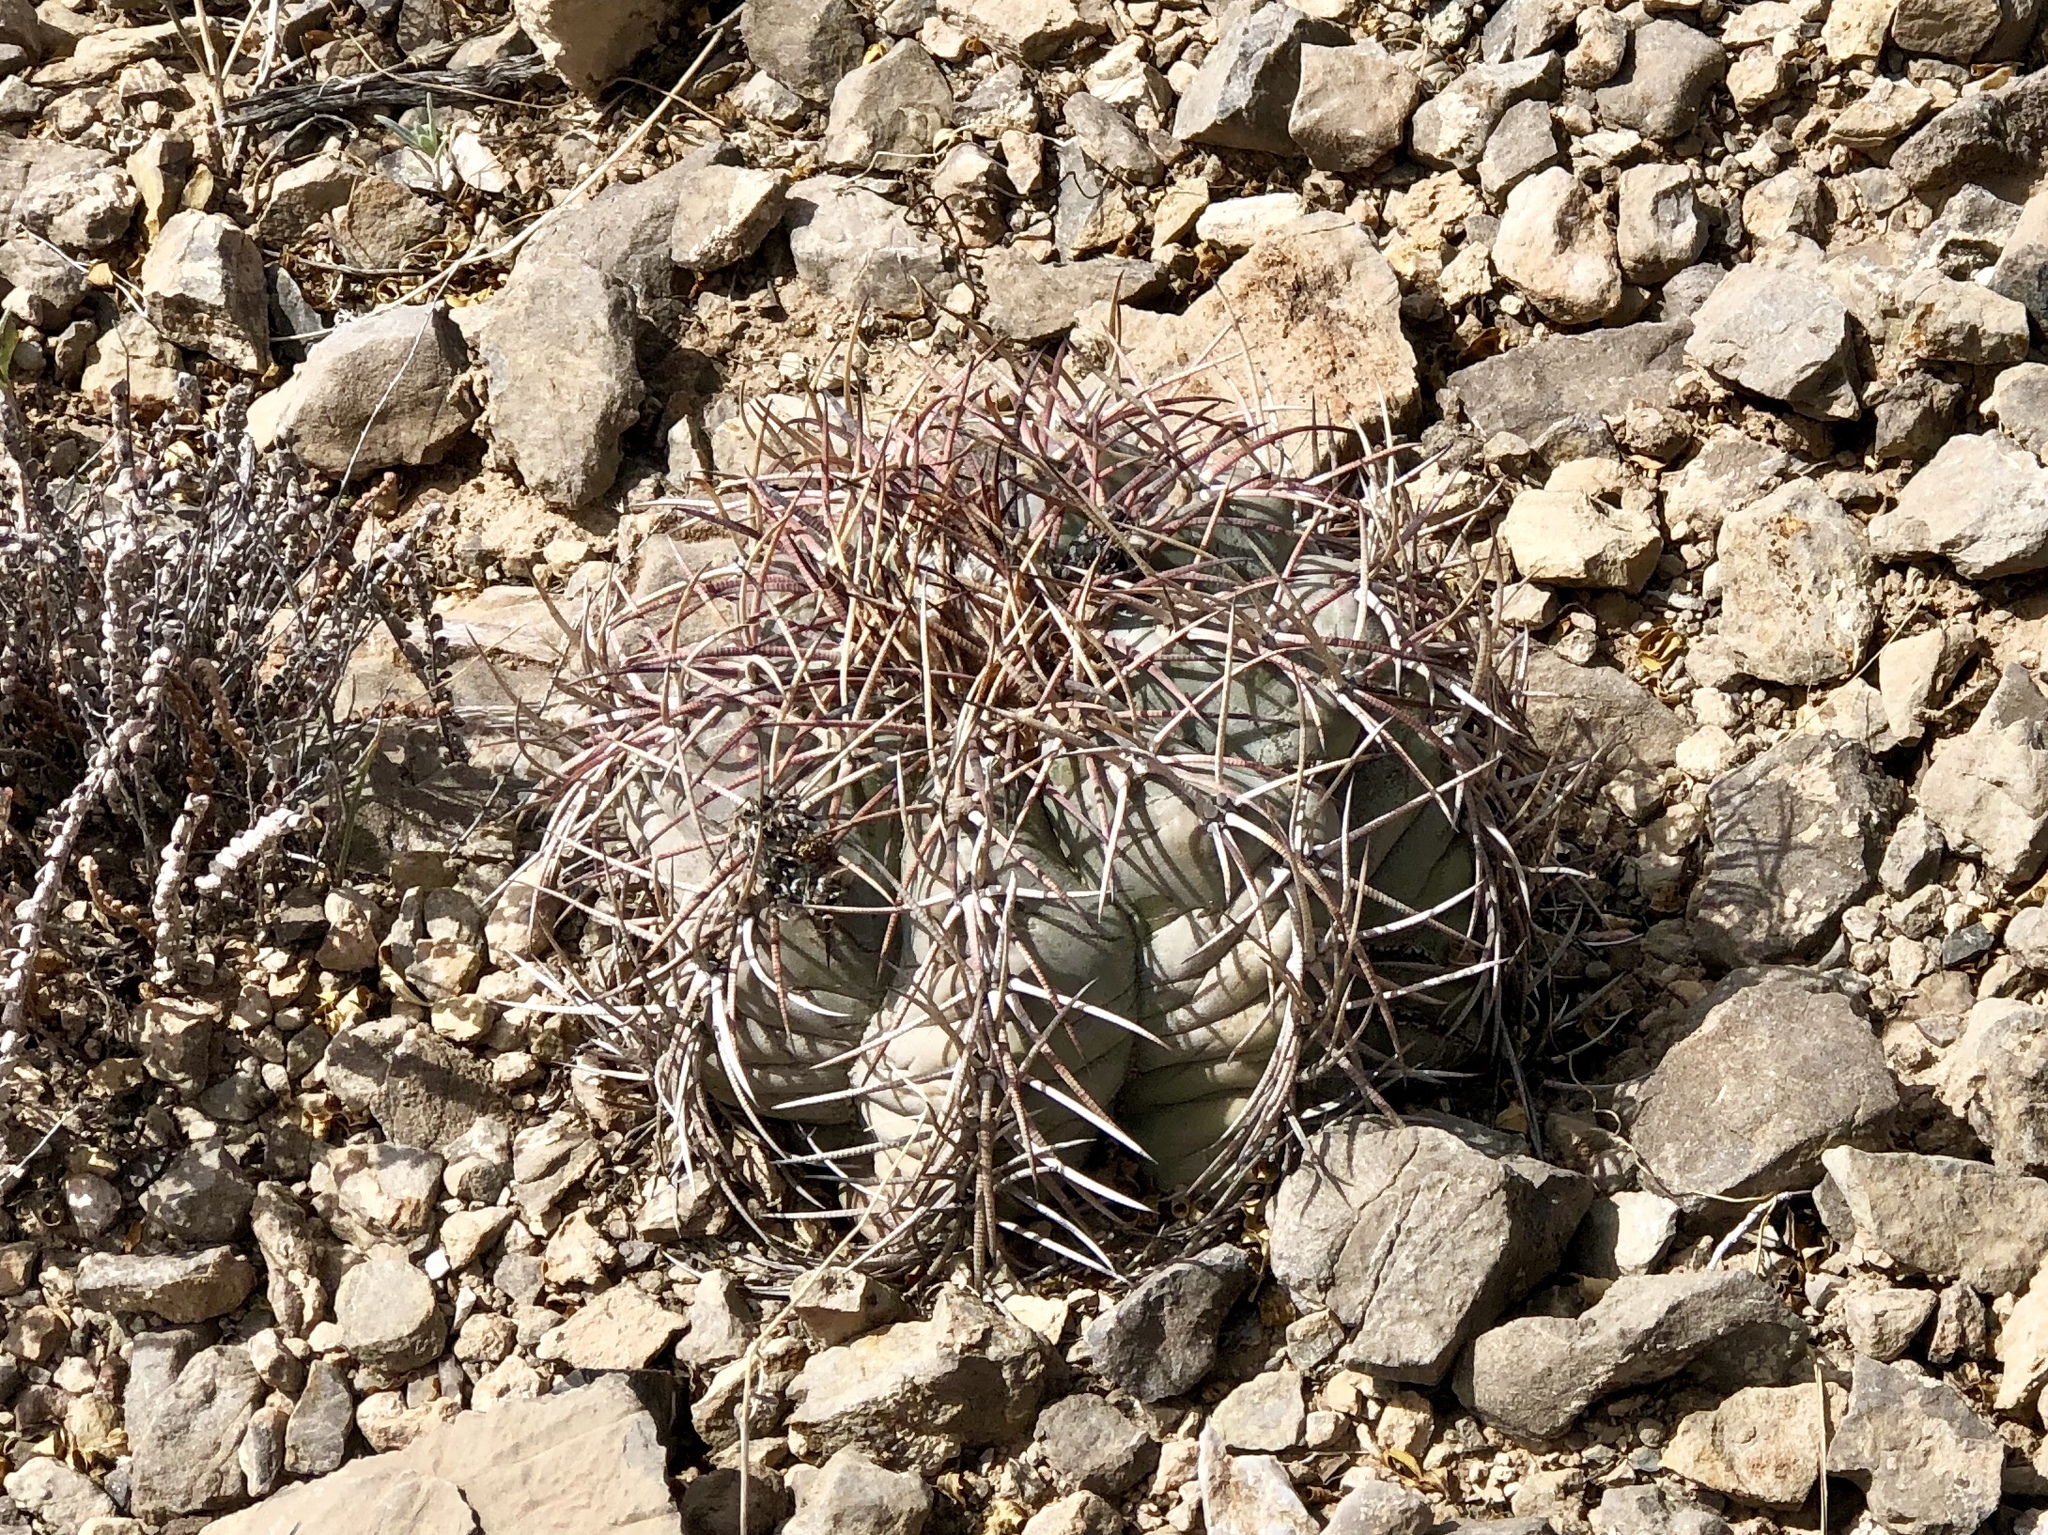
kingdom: Plantae
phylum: Tracheophyta
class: Magnoliopsida
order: Caryophyllales
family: Cactaceae
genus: Echinocactus
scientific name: Echinocactus horizonthalonius
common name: Devilshead
